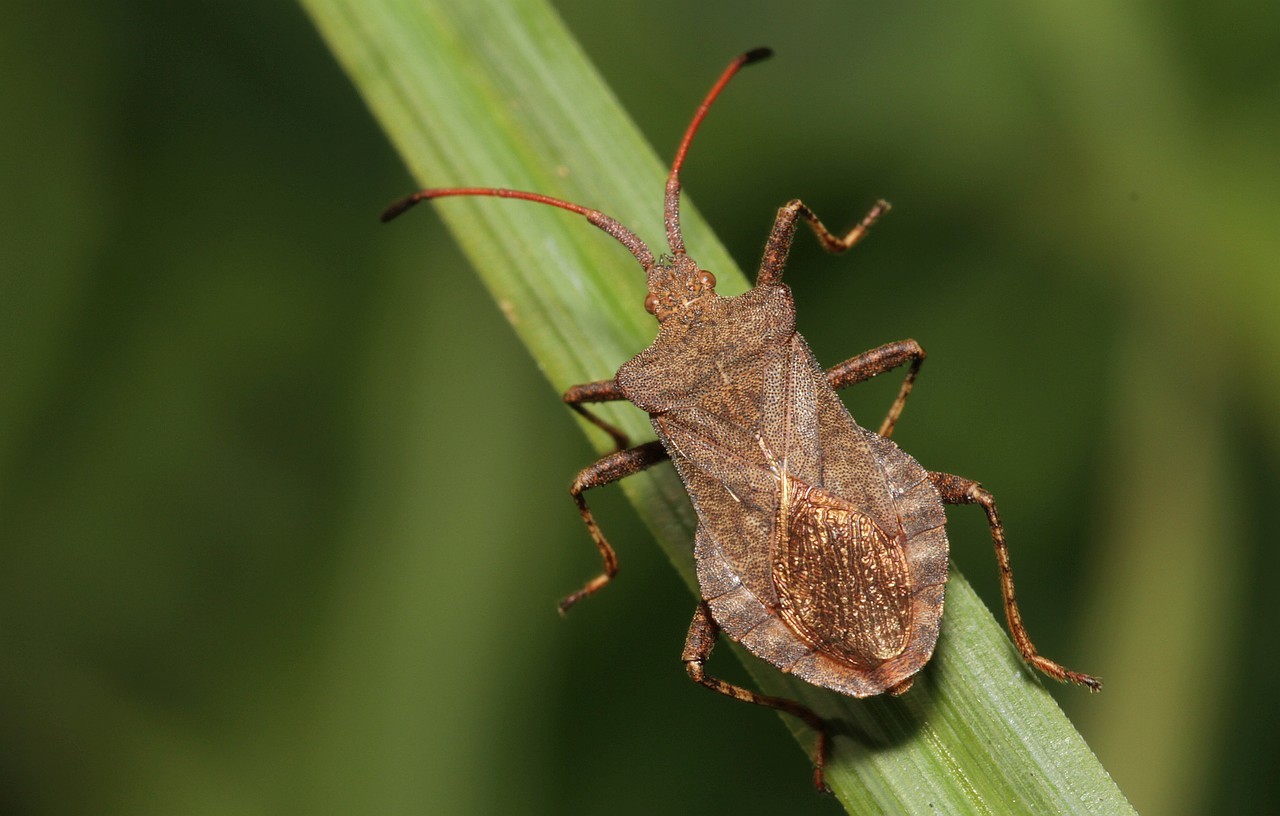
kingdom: Animalia
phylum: Arthropoda
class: Insecta
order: Hemiptera
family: Coreidae
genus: Coreus
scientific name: Coreus marginatus
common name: Dock bug
